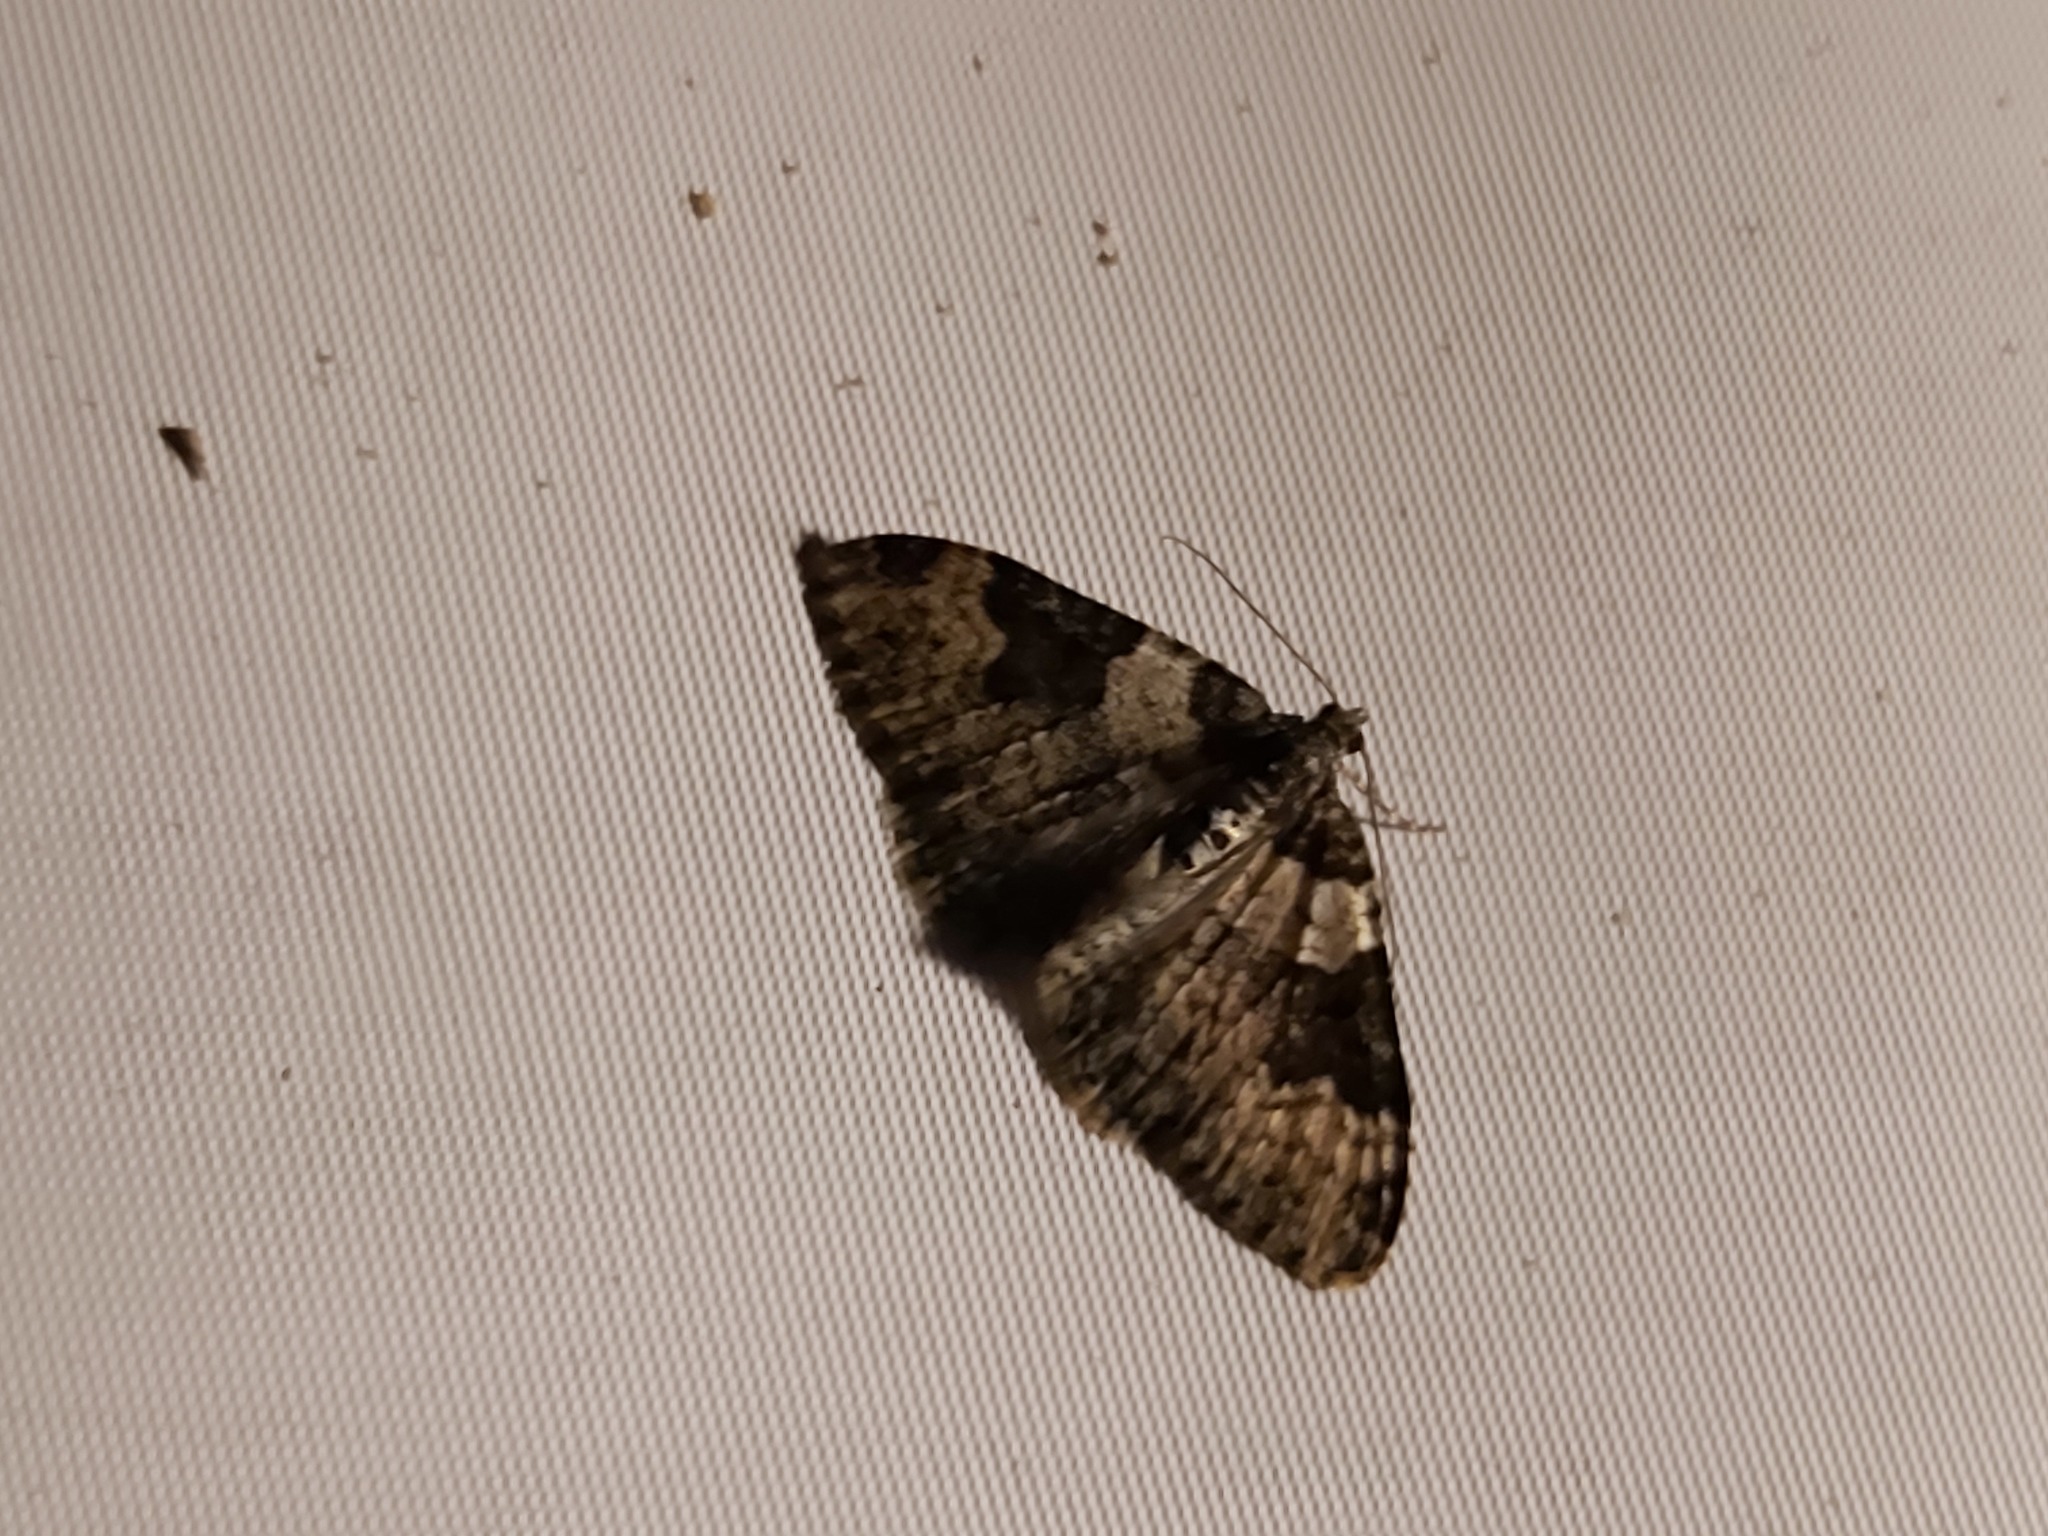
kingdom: Animalia
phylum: Arthropoda
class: Insecta
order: Lepidoptera
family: Geometridae
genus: Xanthorhoe
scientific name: Xanthorhoe fluctuata
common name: Garden carpet
